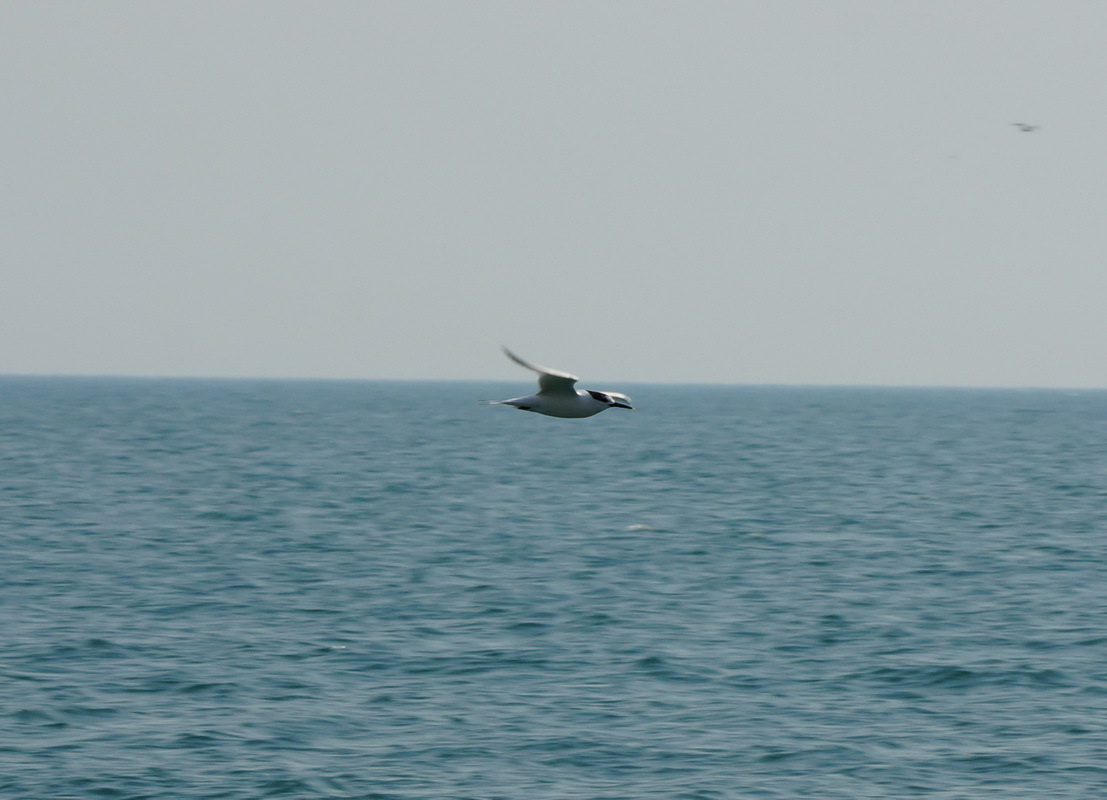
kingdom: Animalia
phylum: Chordata
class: Aves
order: Charadriiformes
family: Laridae
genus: Thalasseus
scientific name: Thalasseus sandvicensis
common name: Sandwich tern
